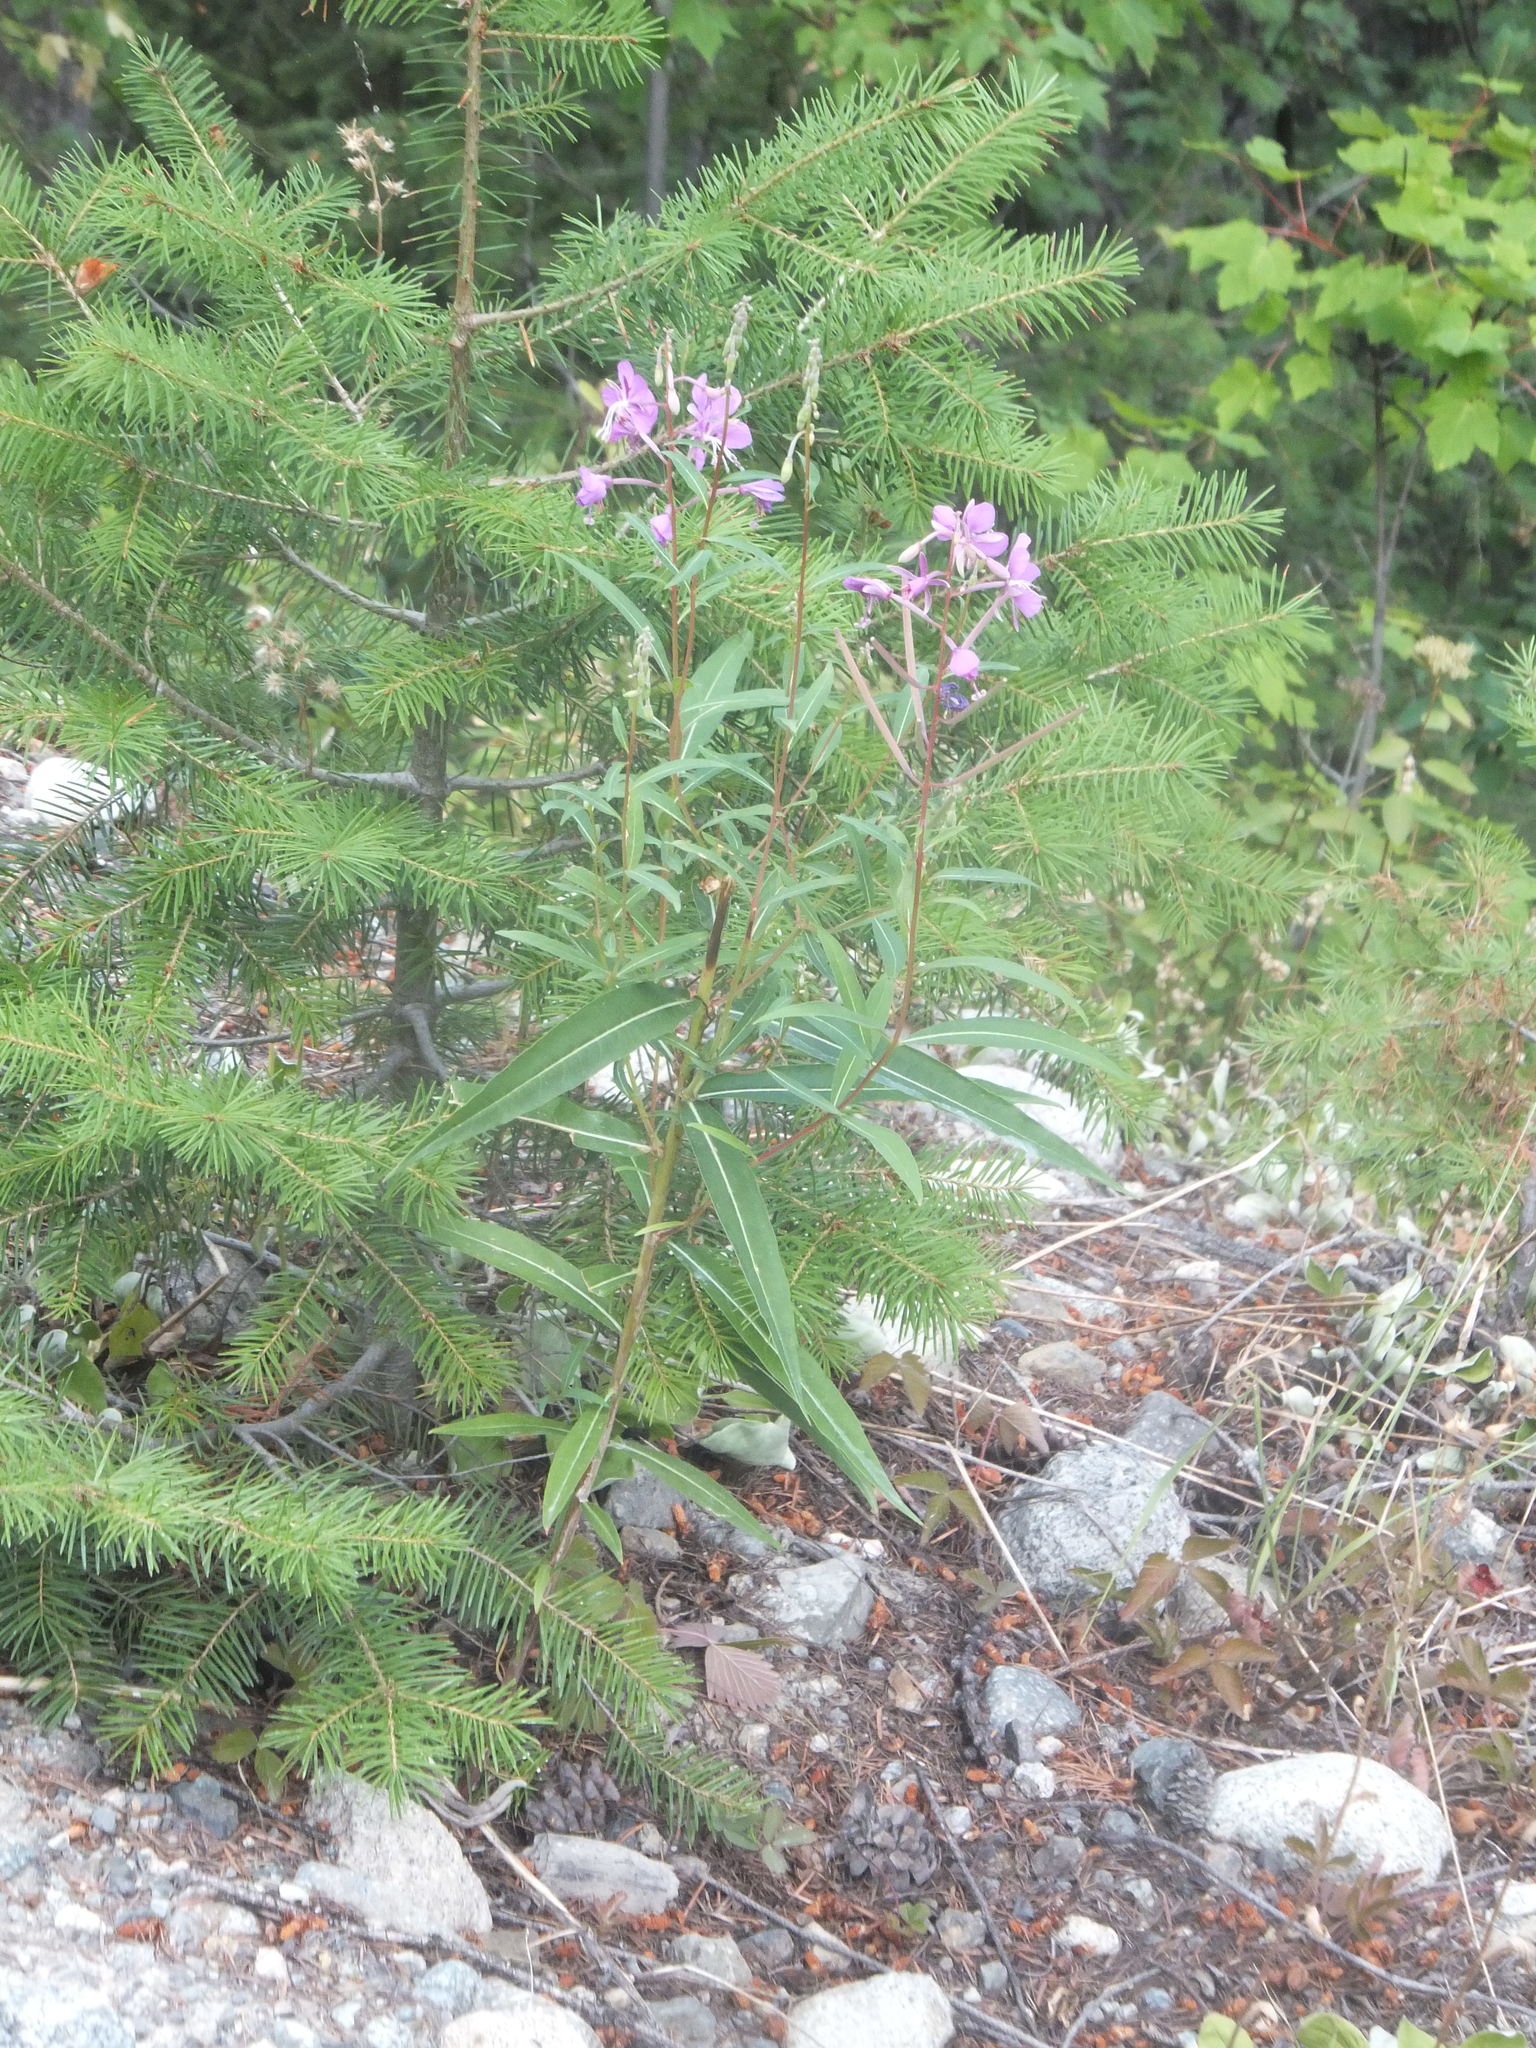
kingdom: Plantae
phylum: Tracheophyta
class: Magnoliopsida
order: Myrtales
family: Onagraceae
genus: Chamaenerion
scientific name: Chamaenerion angustifolium
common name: Fireweed
